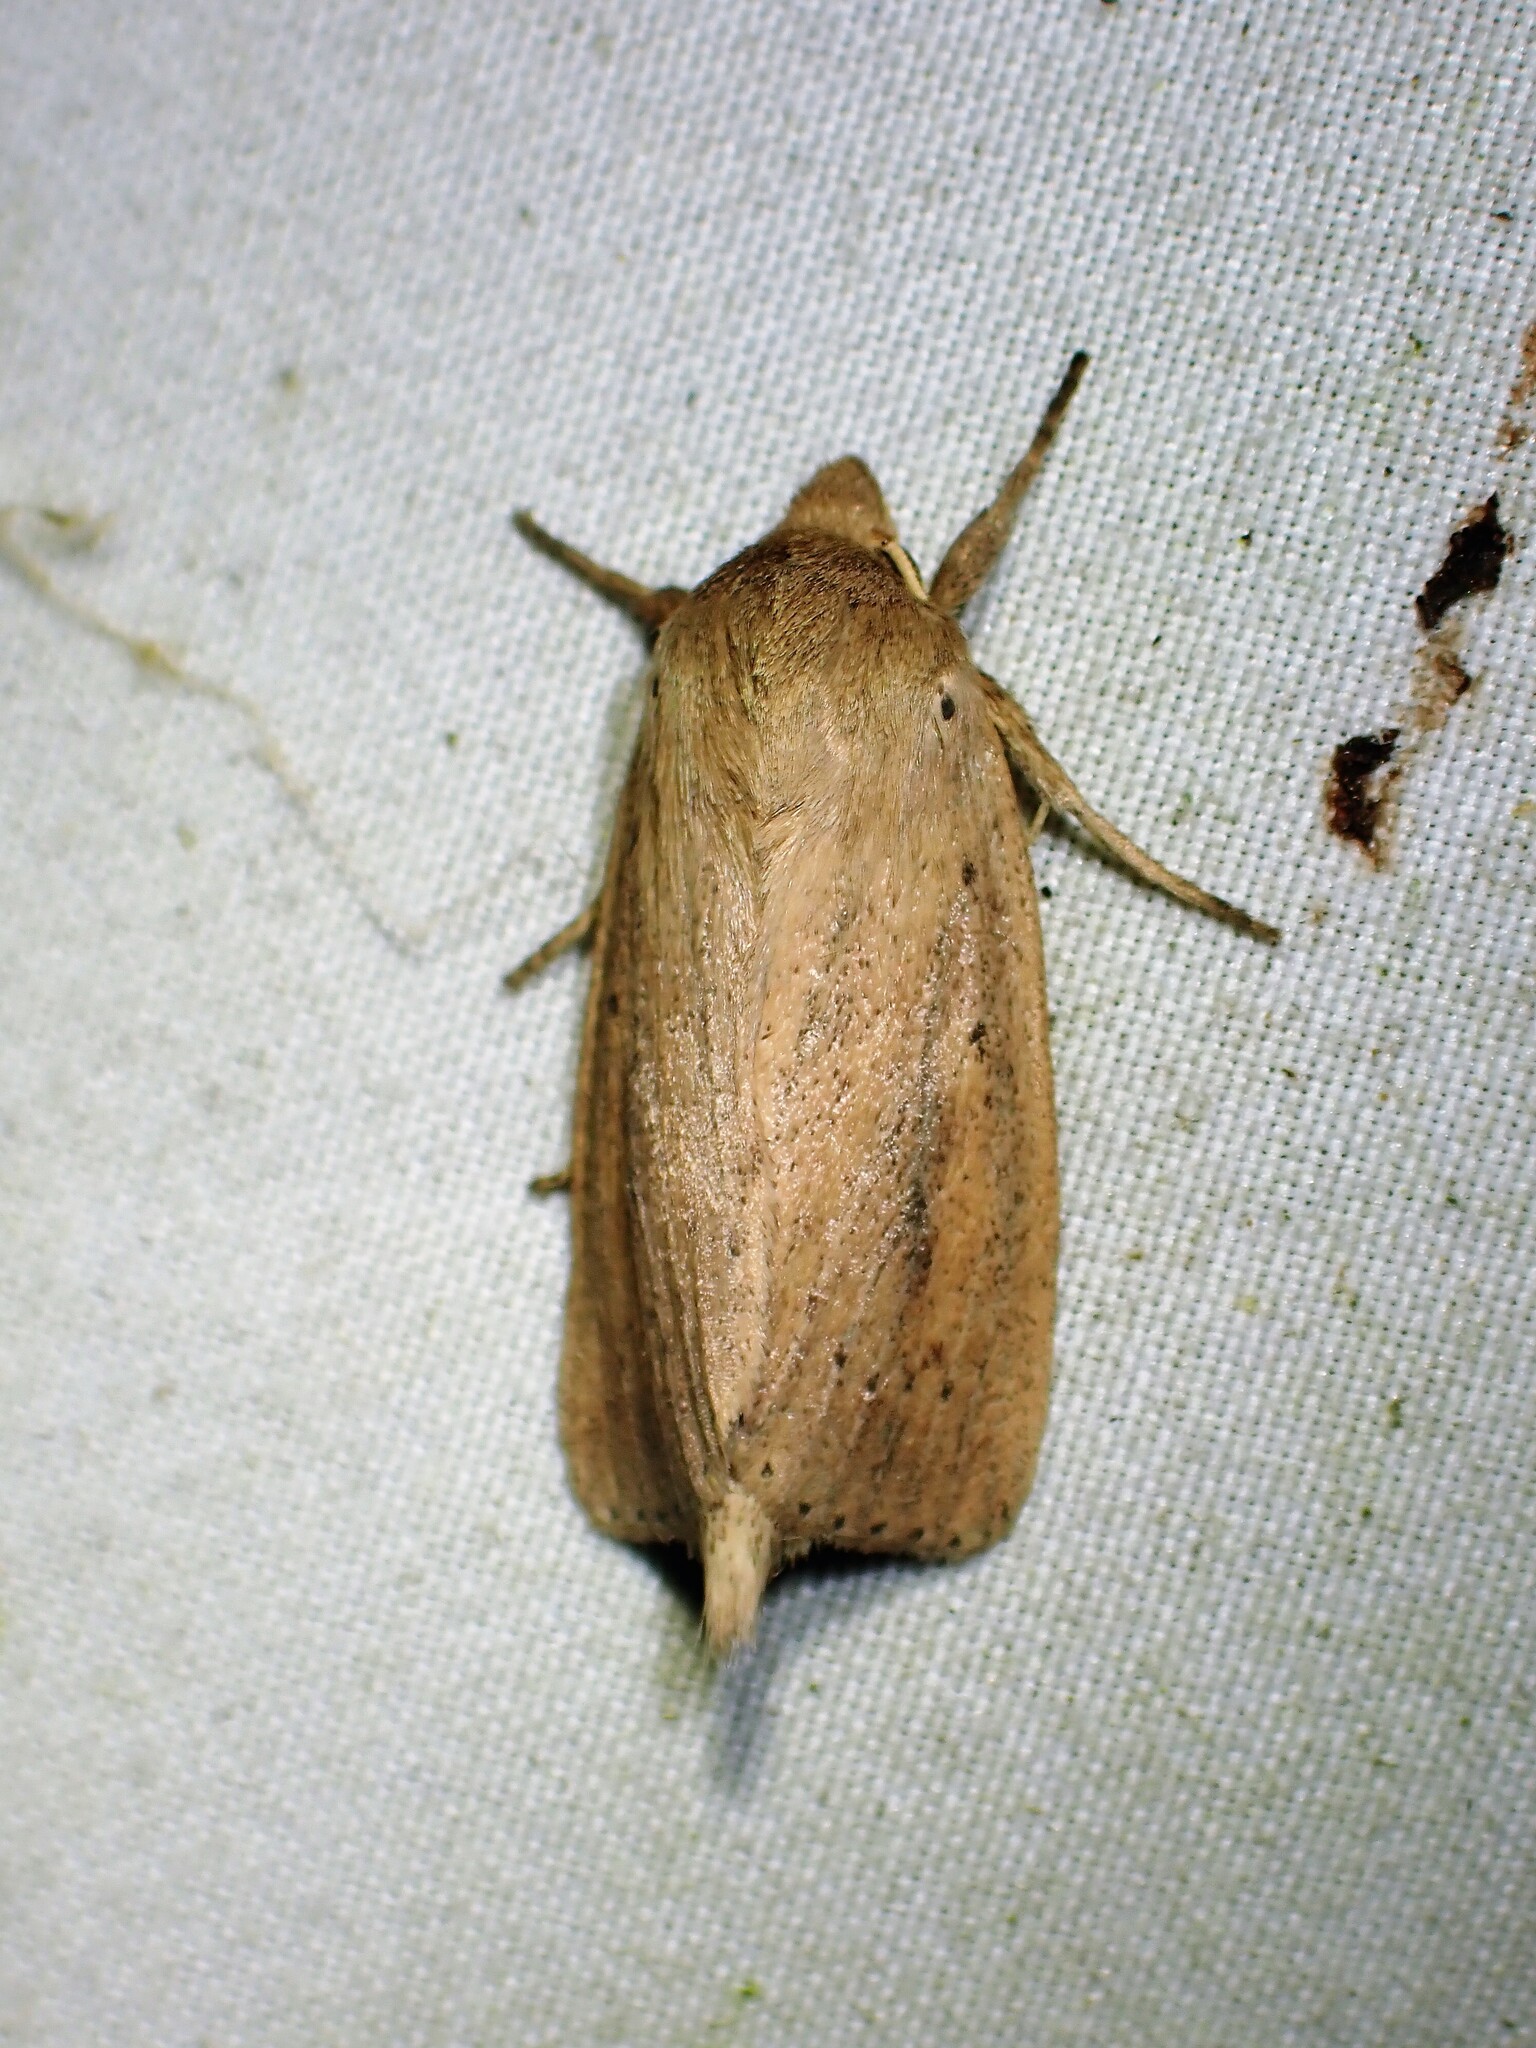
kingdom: Animalia
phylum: Arthropoda
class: Insecta
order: Lepidoptera
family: Noctuidae
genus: Globia
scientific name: Globia oblonga
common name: Oblong sedge borer moth
